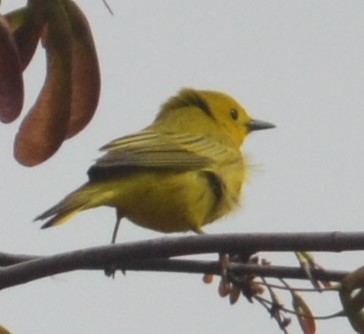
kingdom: Animalia
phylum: Chordata
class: Aves
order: Passeriformes
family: Parulidae
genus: Setophaga
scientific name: Setophaga petechia
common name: Yellow warbler
